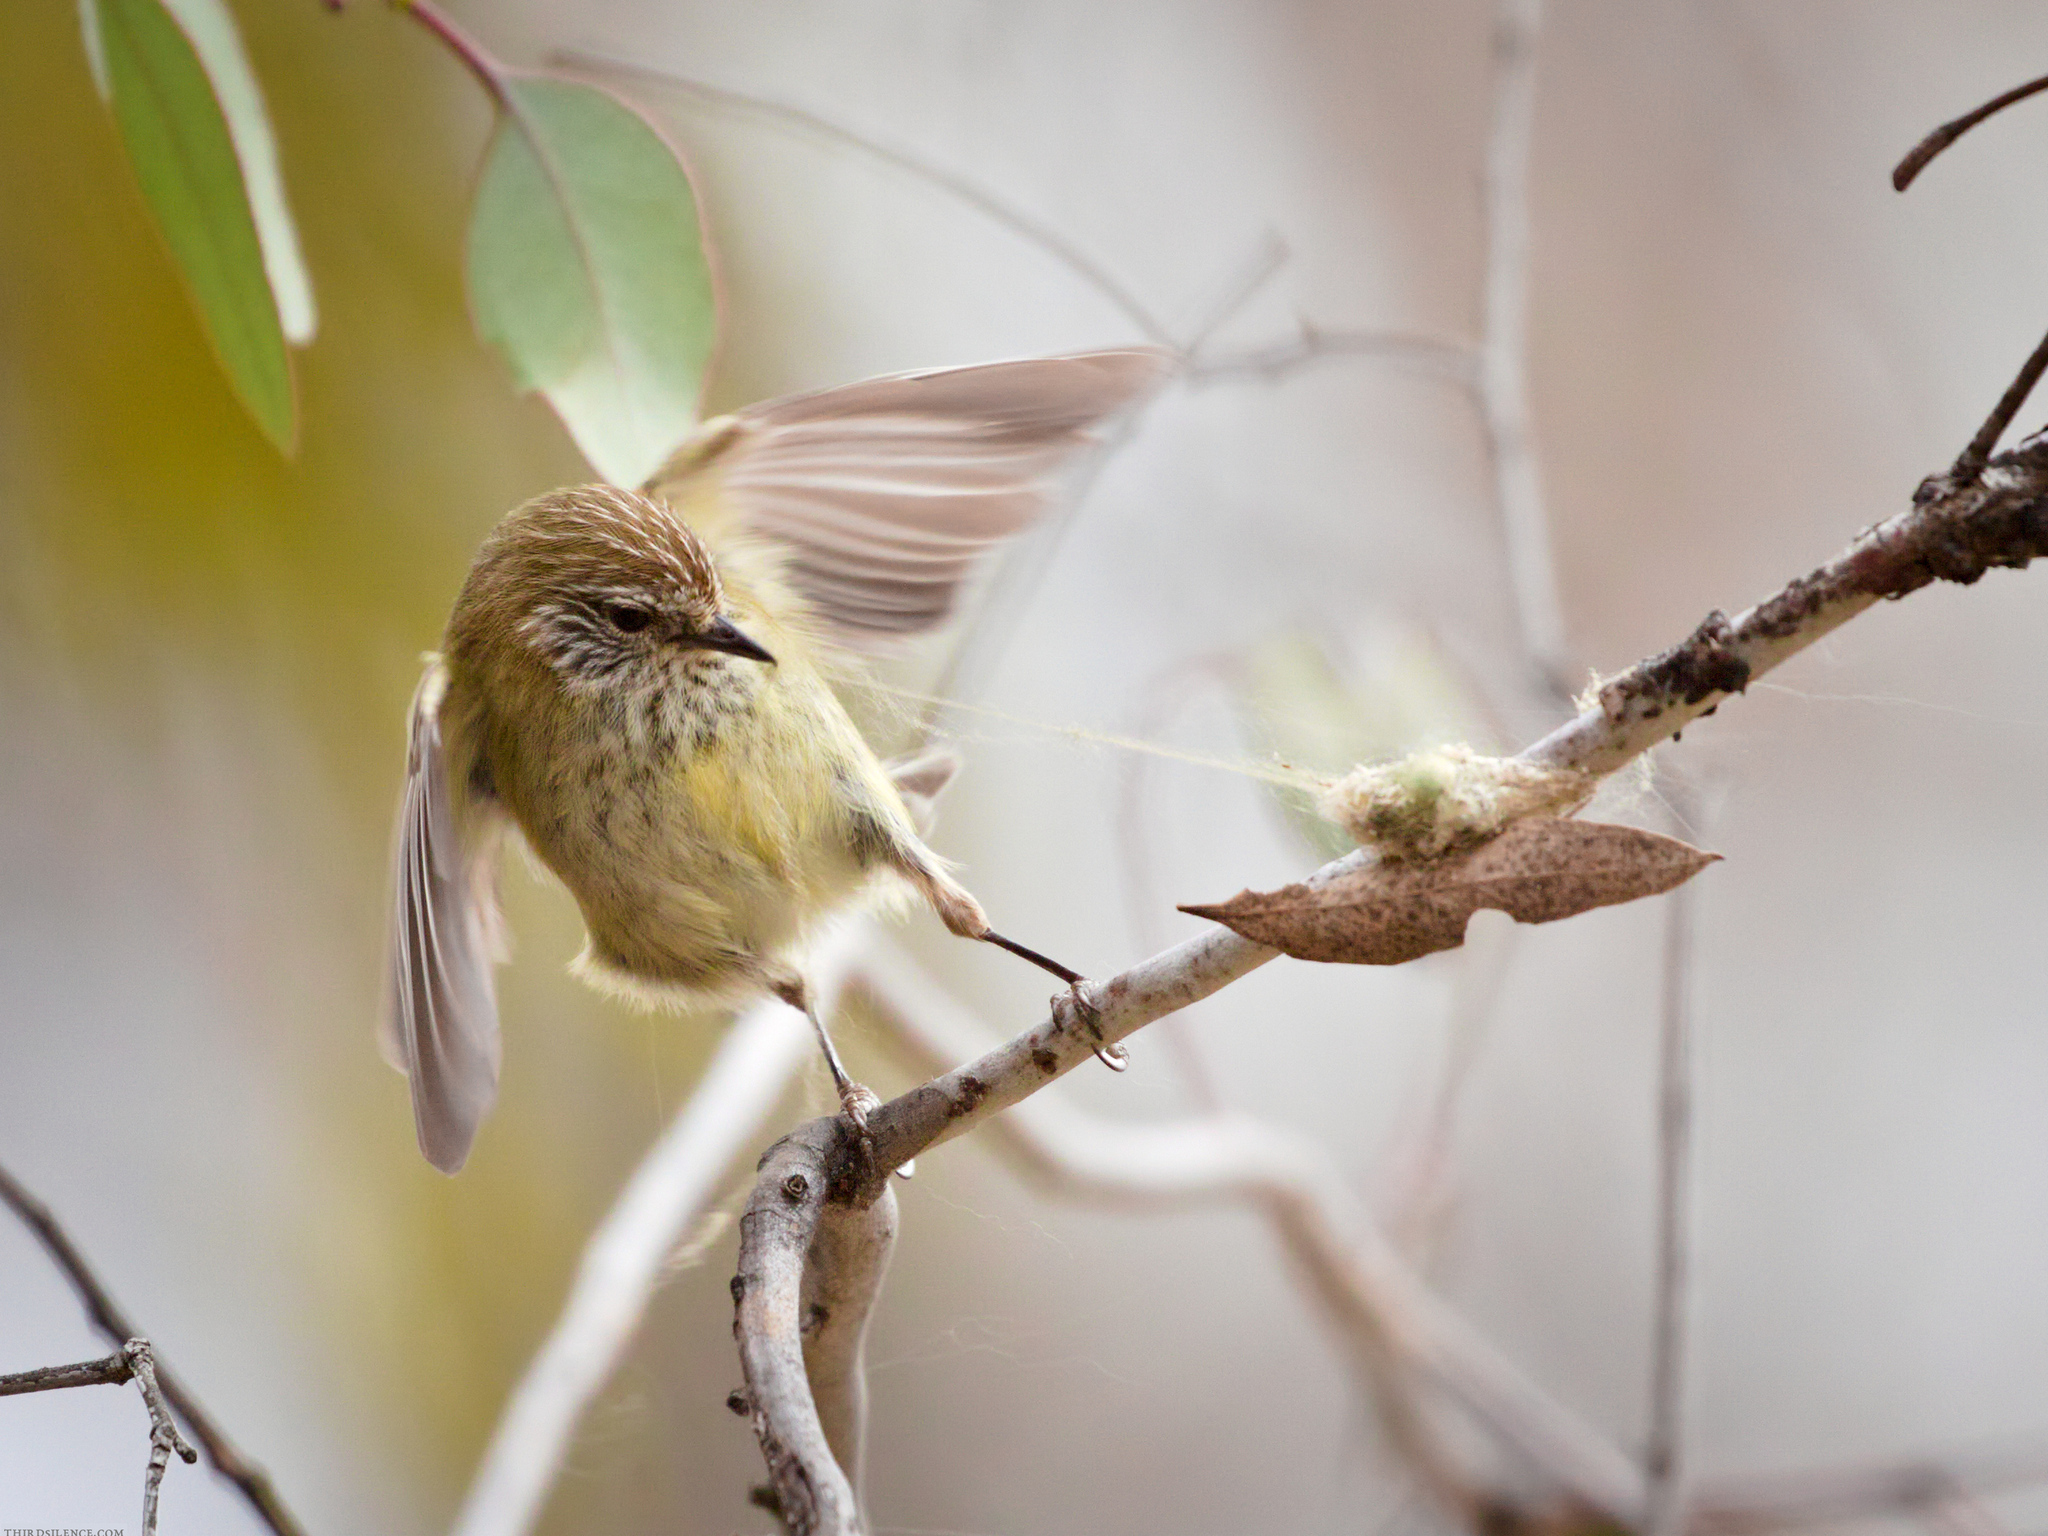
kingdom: Animalia
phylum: Chordata
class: Aves
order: Passeriformes
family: Acanthizidae
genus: Acanthiza
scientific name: Acanthiza lineata
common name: Striated thornbill
